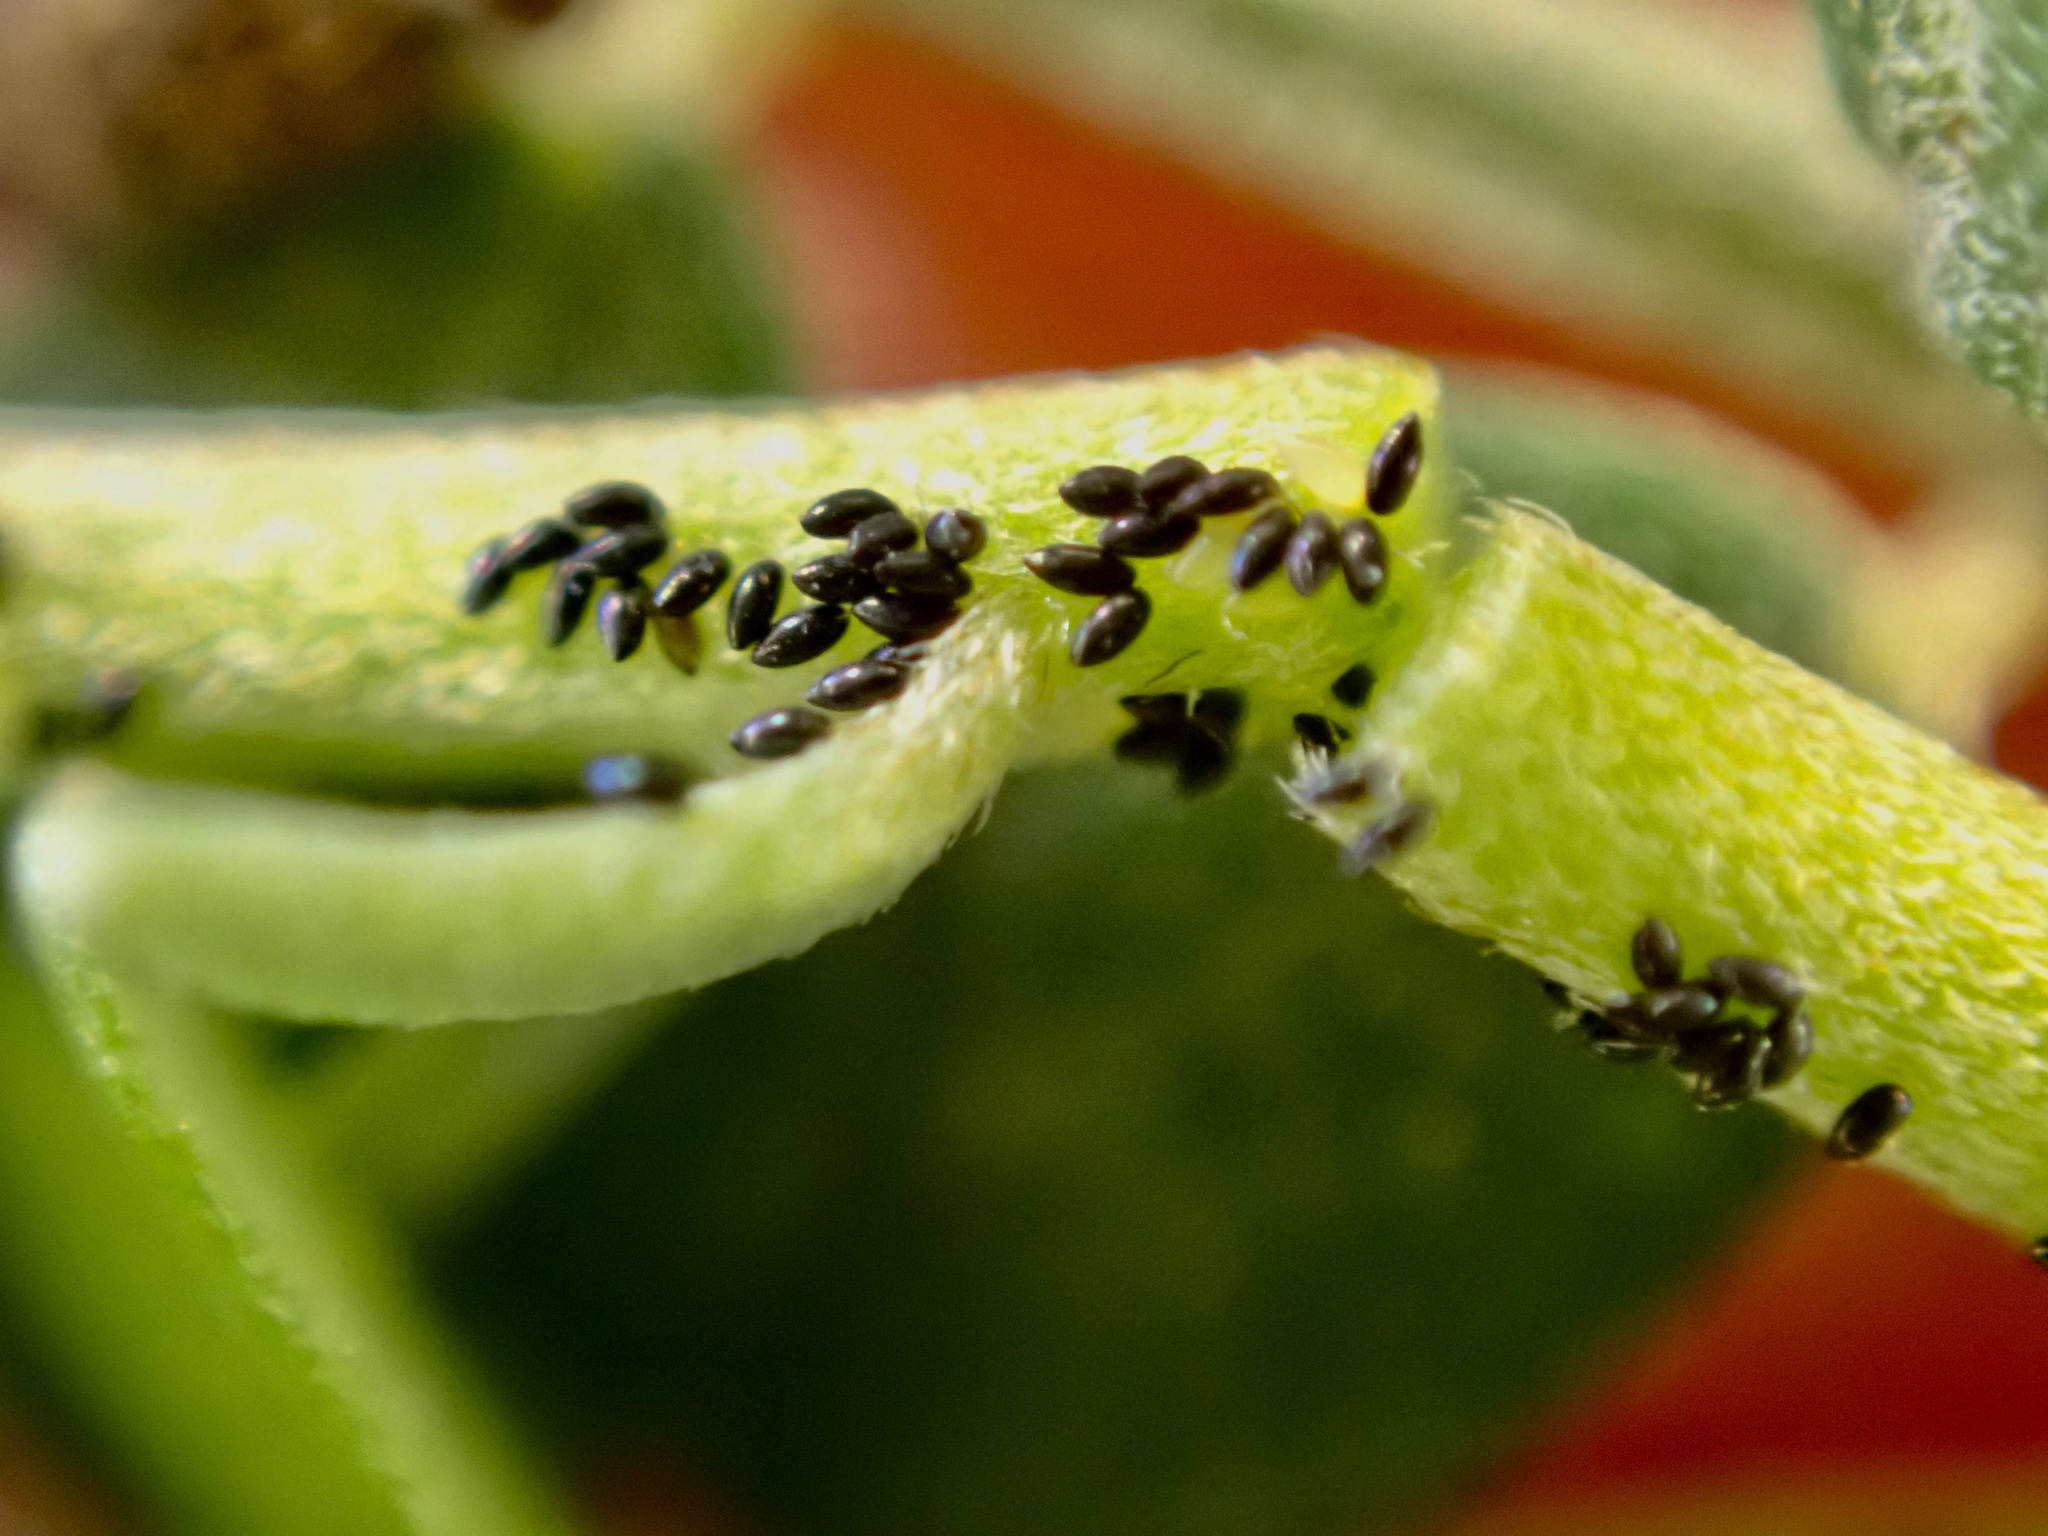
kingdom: Animalia
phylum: Arthropoda
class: Insecta
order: Hemiptera
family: Psyllidae
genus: Acizzia
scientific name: Acizzia apicalis
